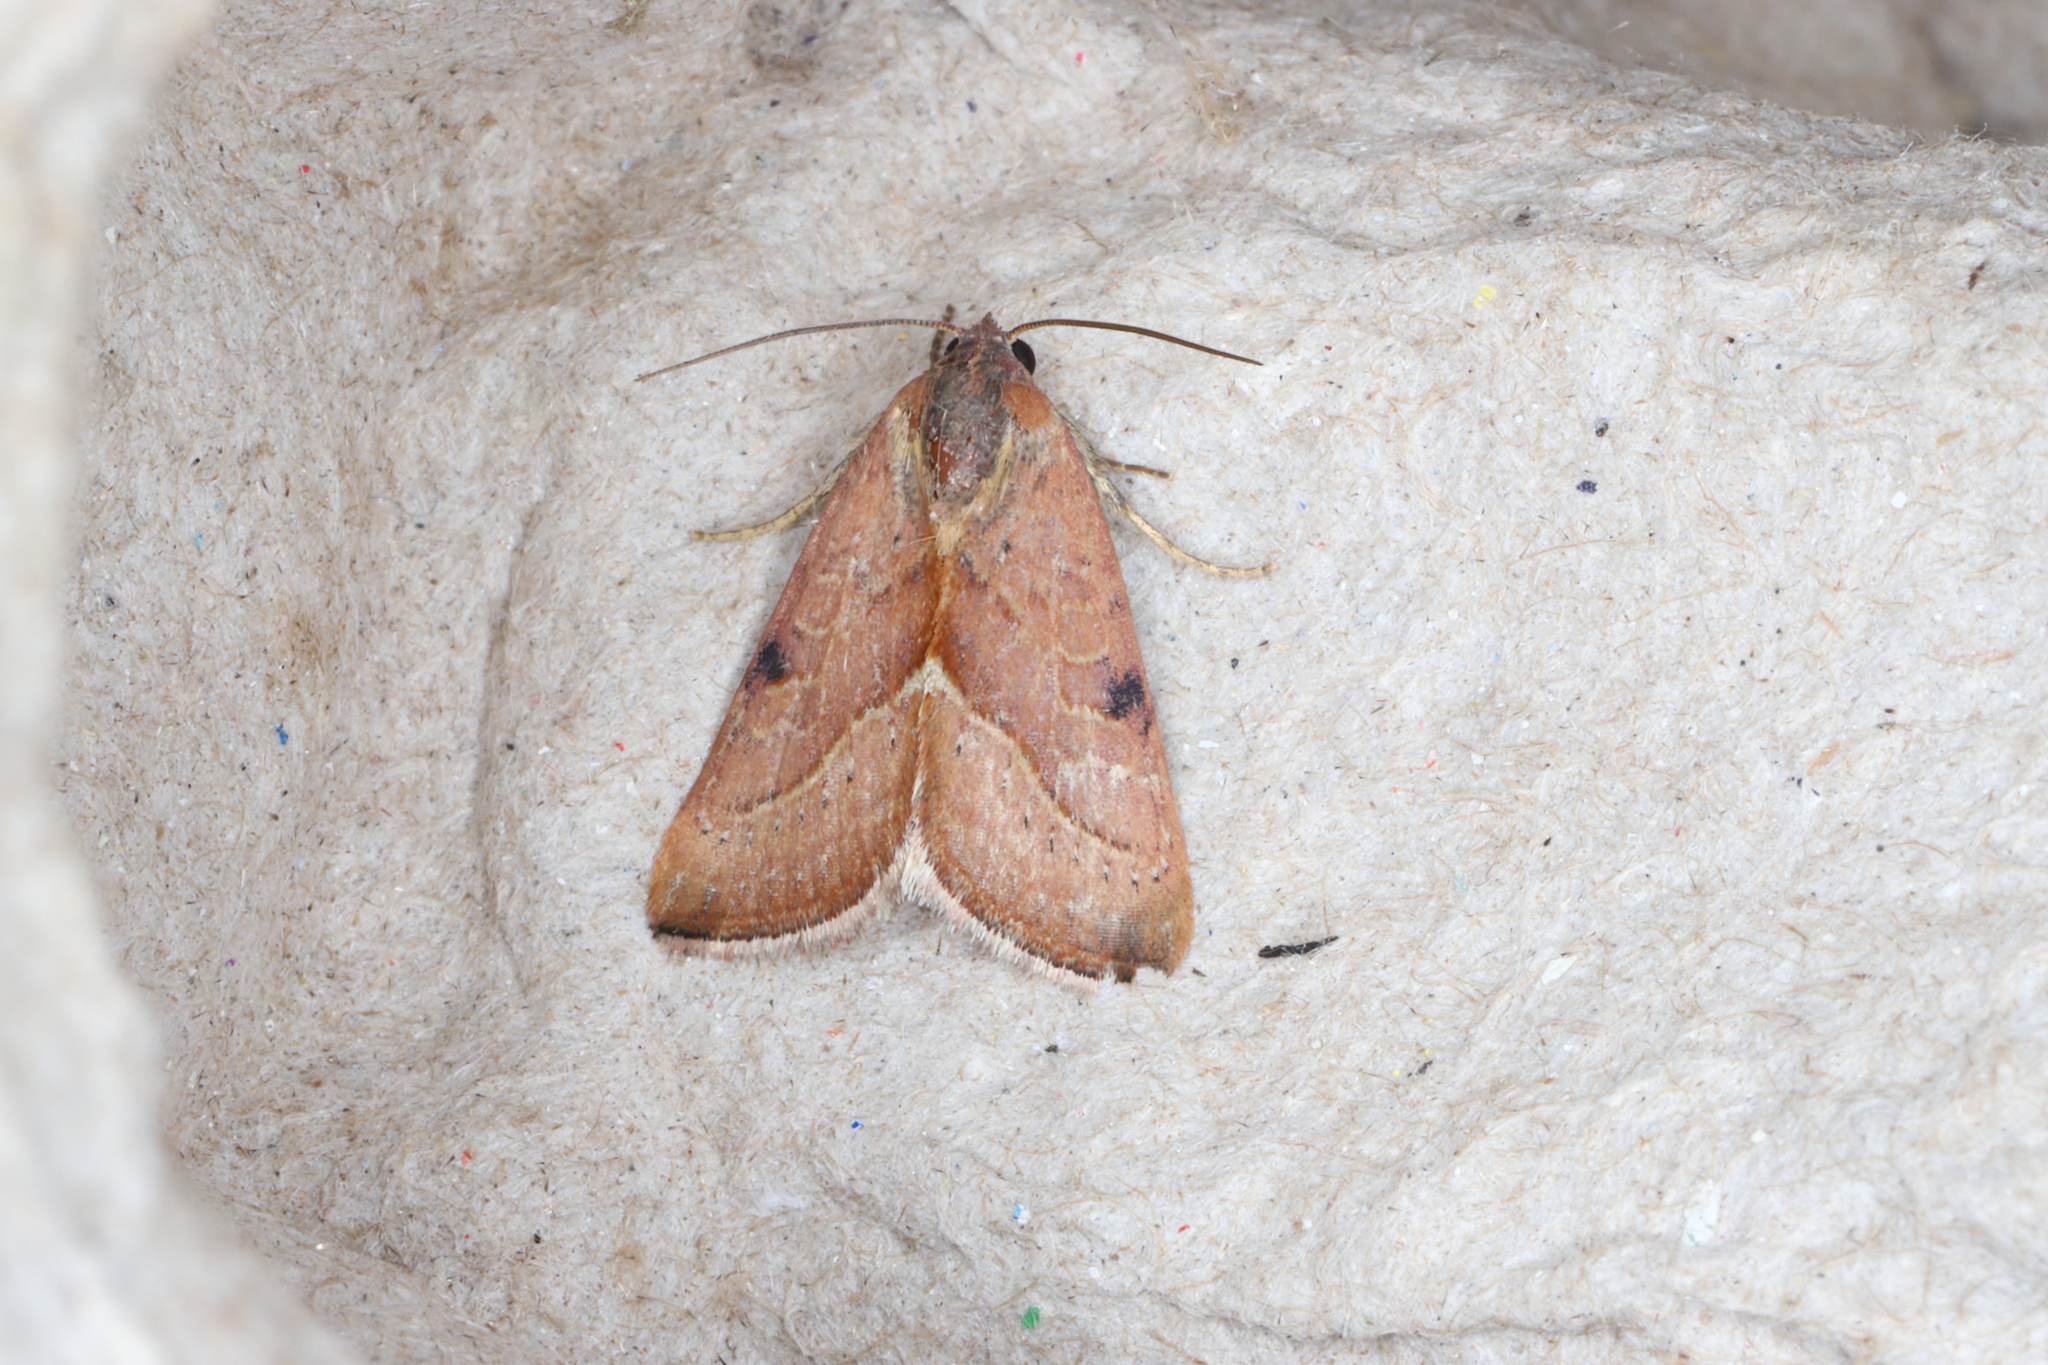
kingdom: Animalia
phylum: Arthropoda
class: Insecta
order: Lepidoptera
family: Noctuidae
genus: Galgula
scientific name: Galgula partita
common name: Wedgeling
